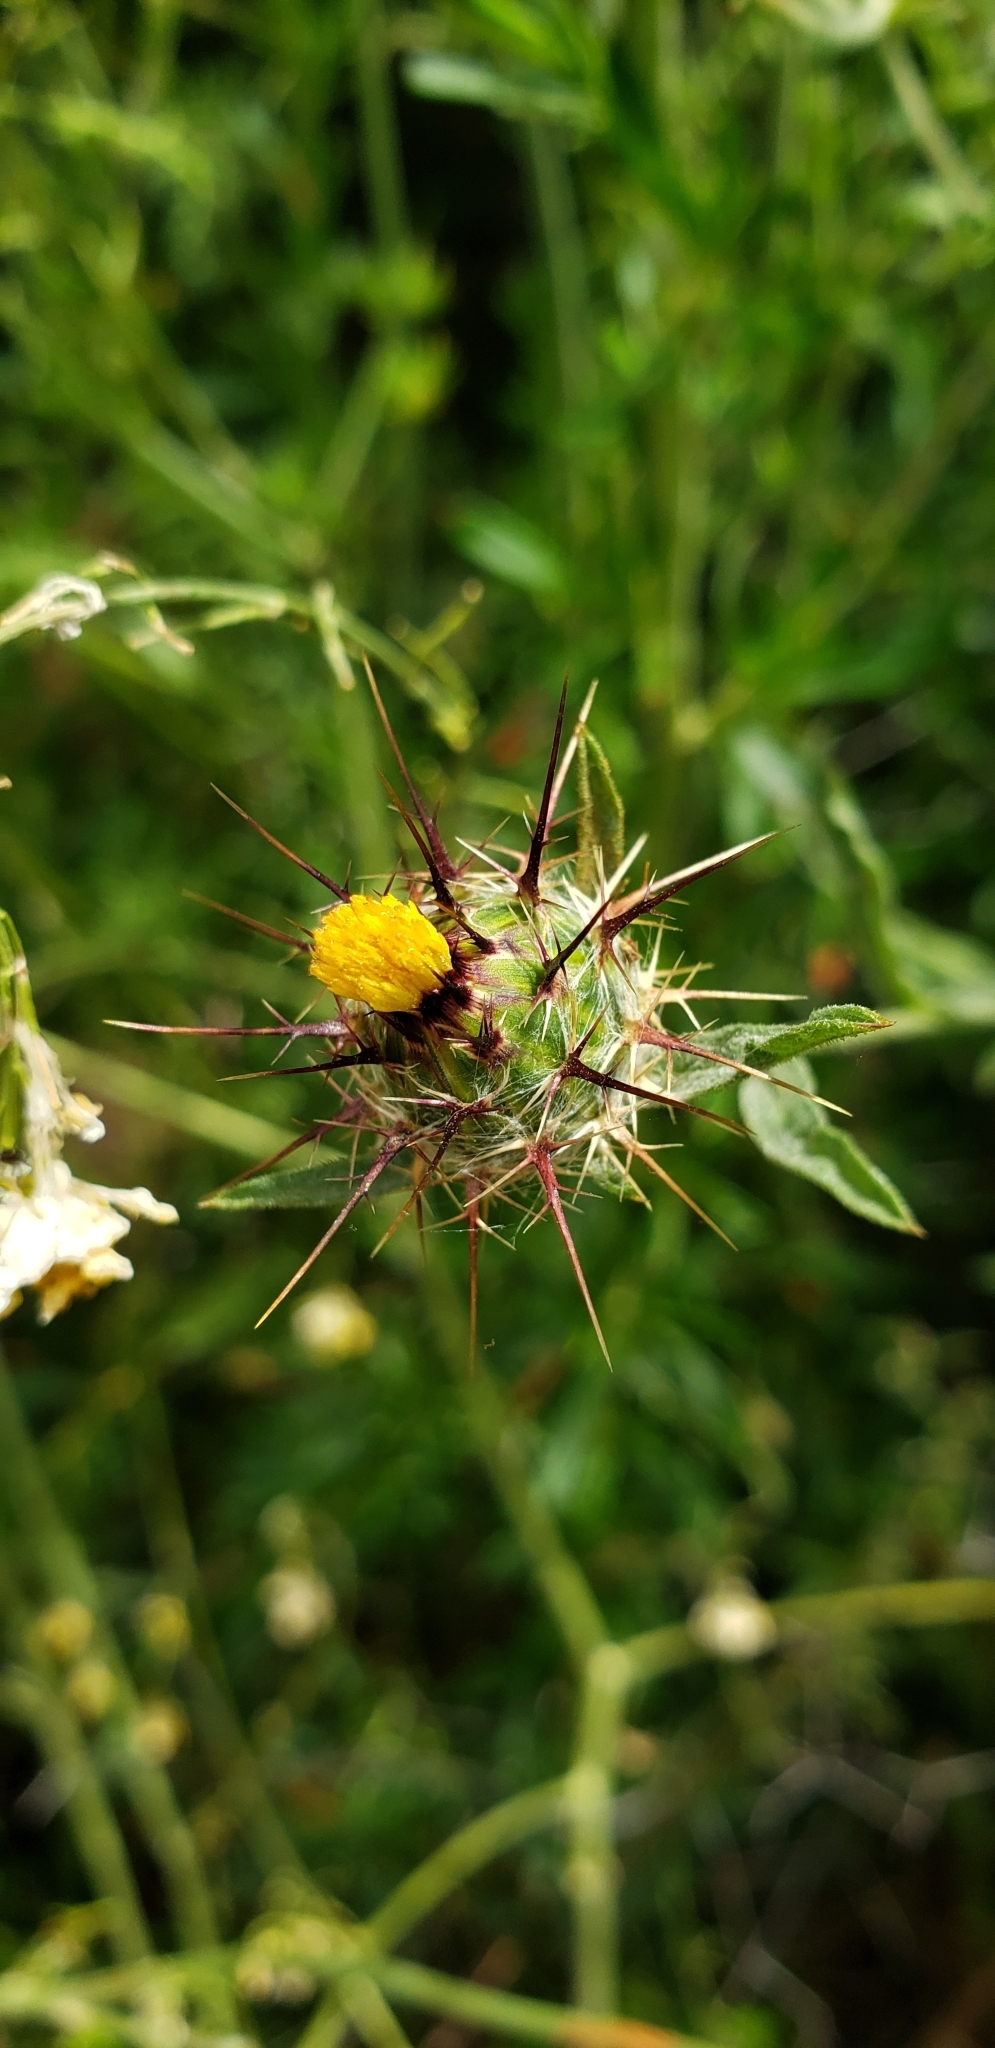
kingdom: Plantae
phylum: Tracheophyta
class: Magnoliopsida
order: Asterales
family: Asteraceae
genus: Centaurea
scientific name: Centaurea melitensis
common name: Maltese star-thistle
